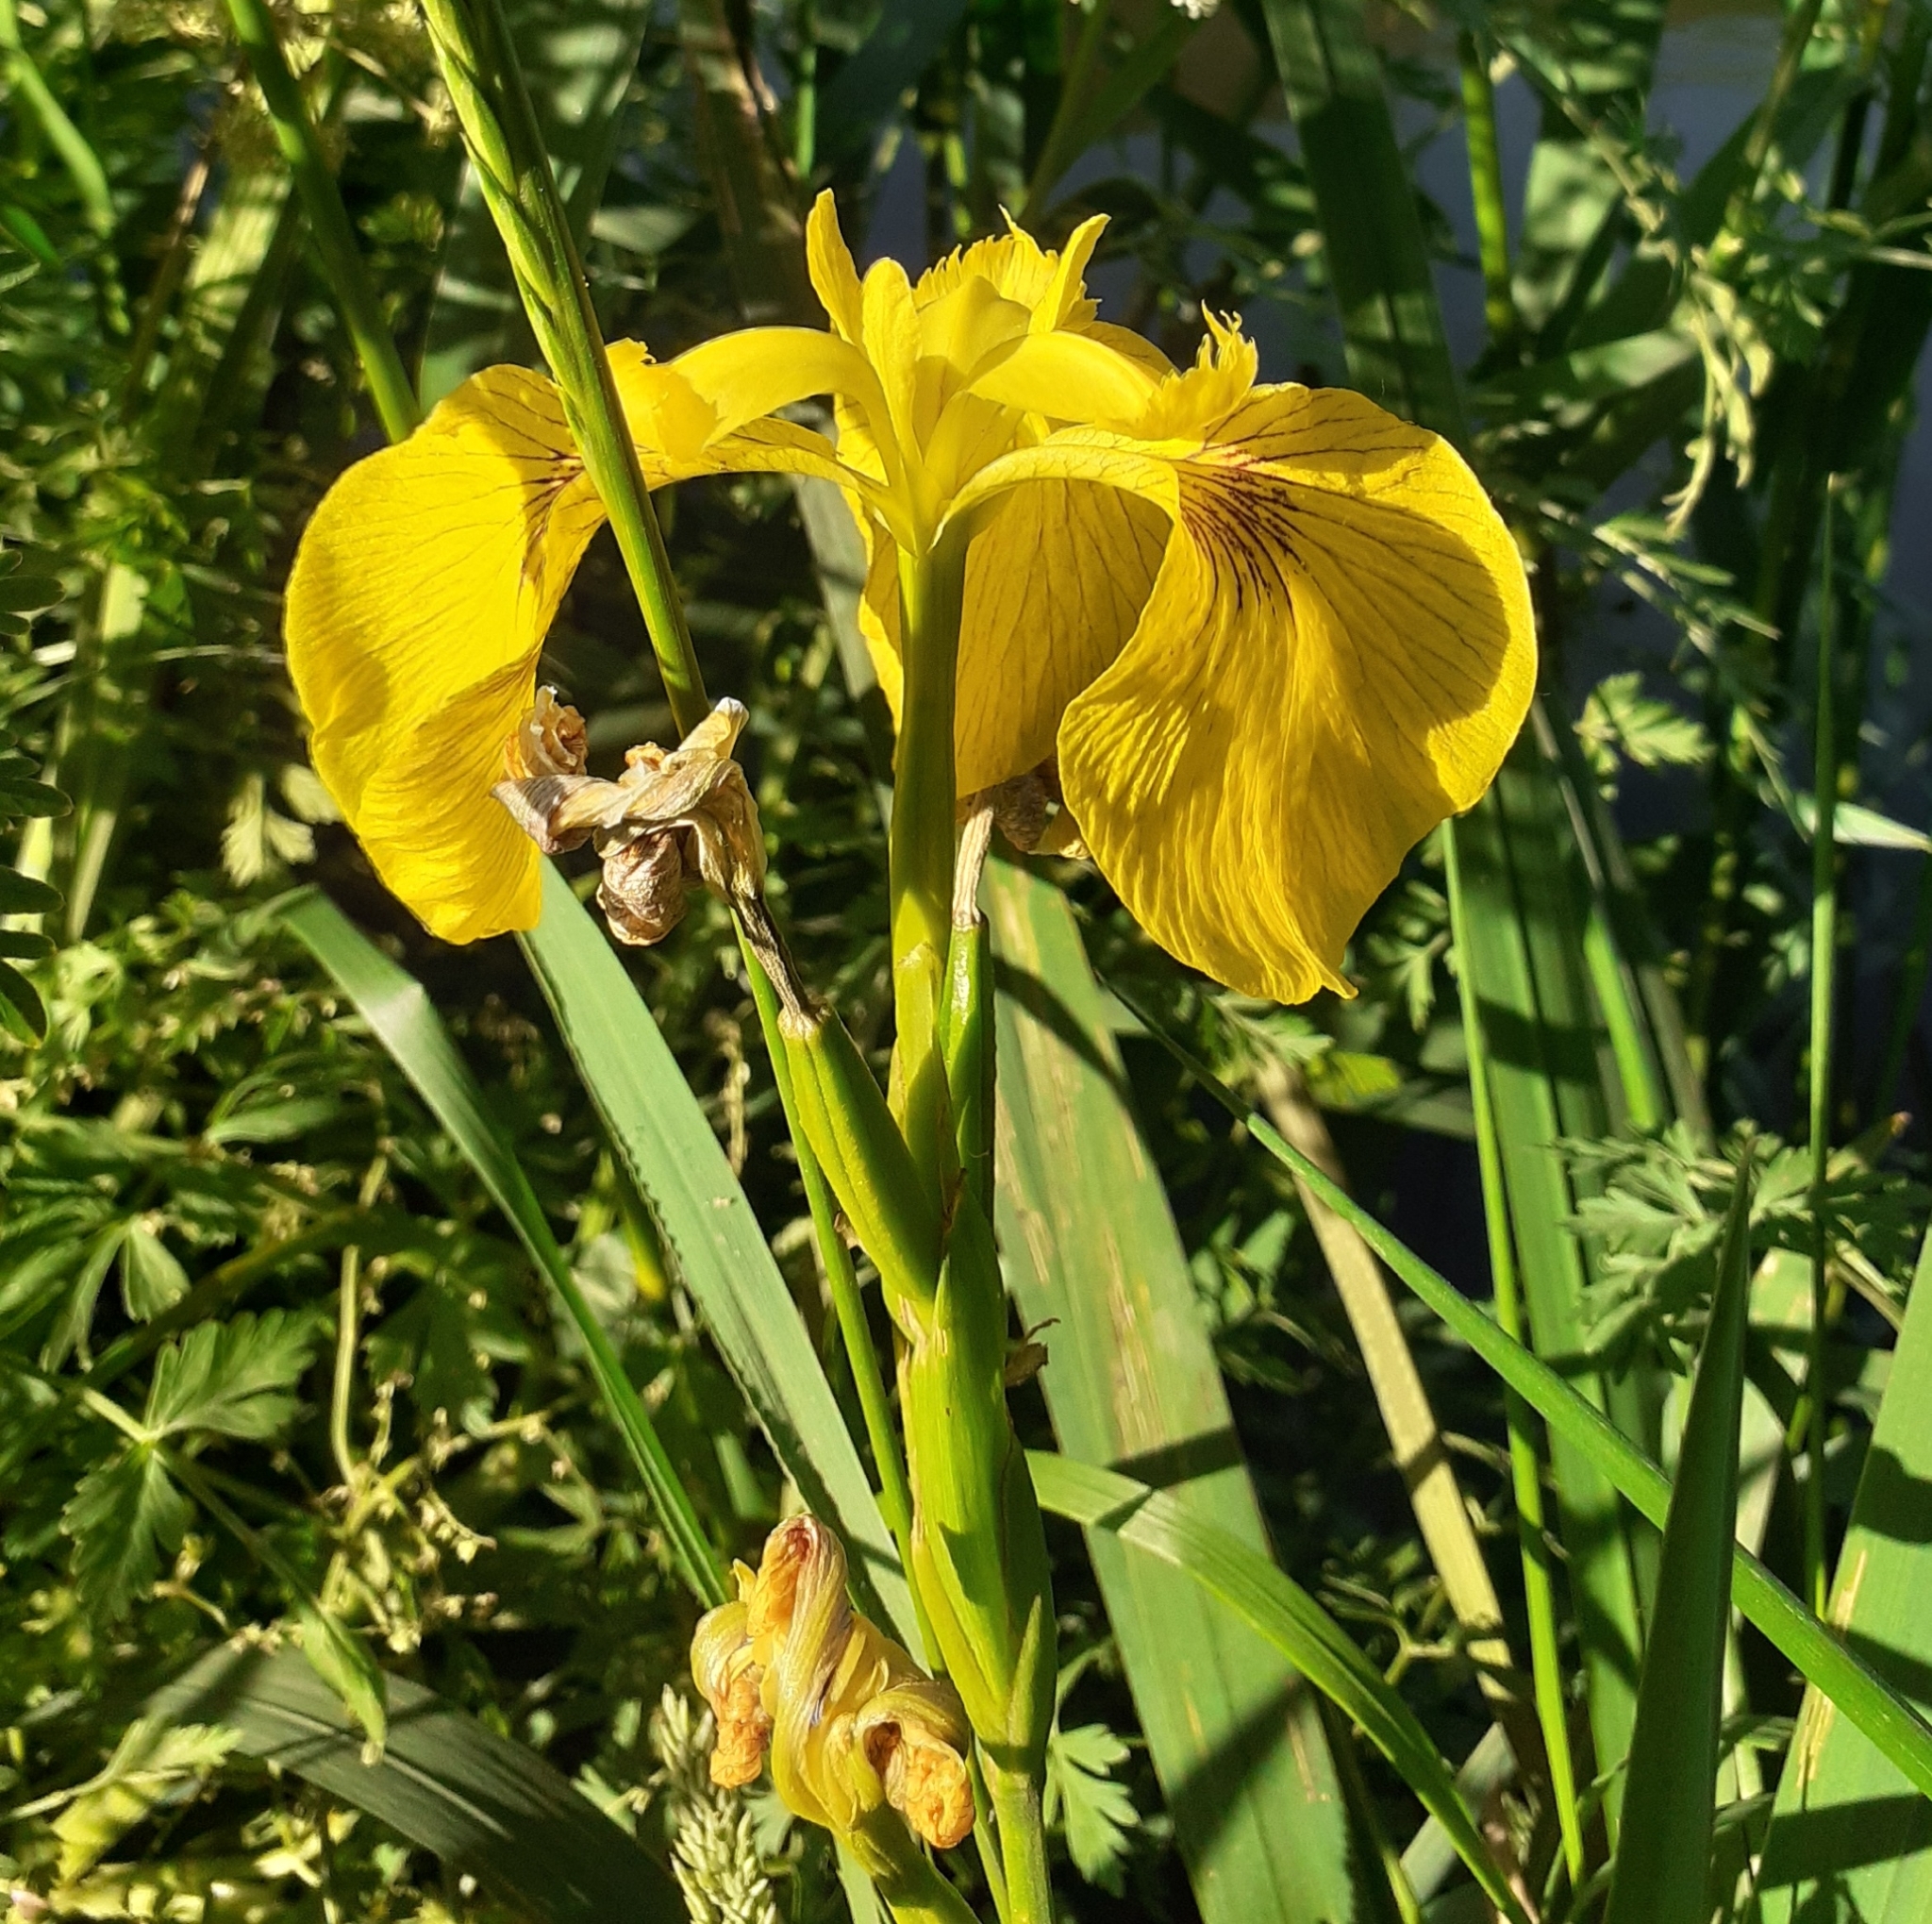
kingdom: Plantae
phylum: Tracheophyta
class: Liliopsida
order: Asparagales
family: Iridaceae
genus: Iris
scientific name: Iris pseudacorus
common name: Yellow flag
